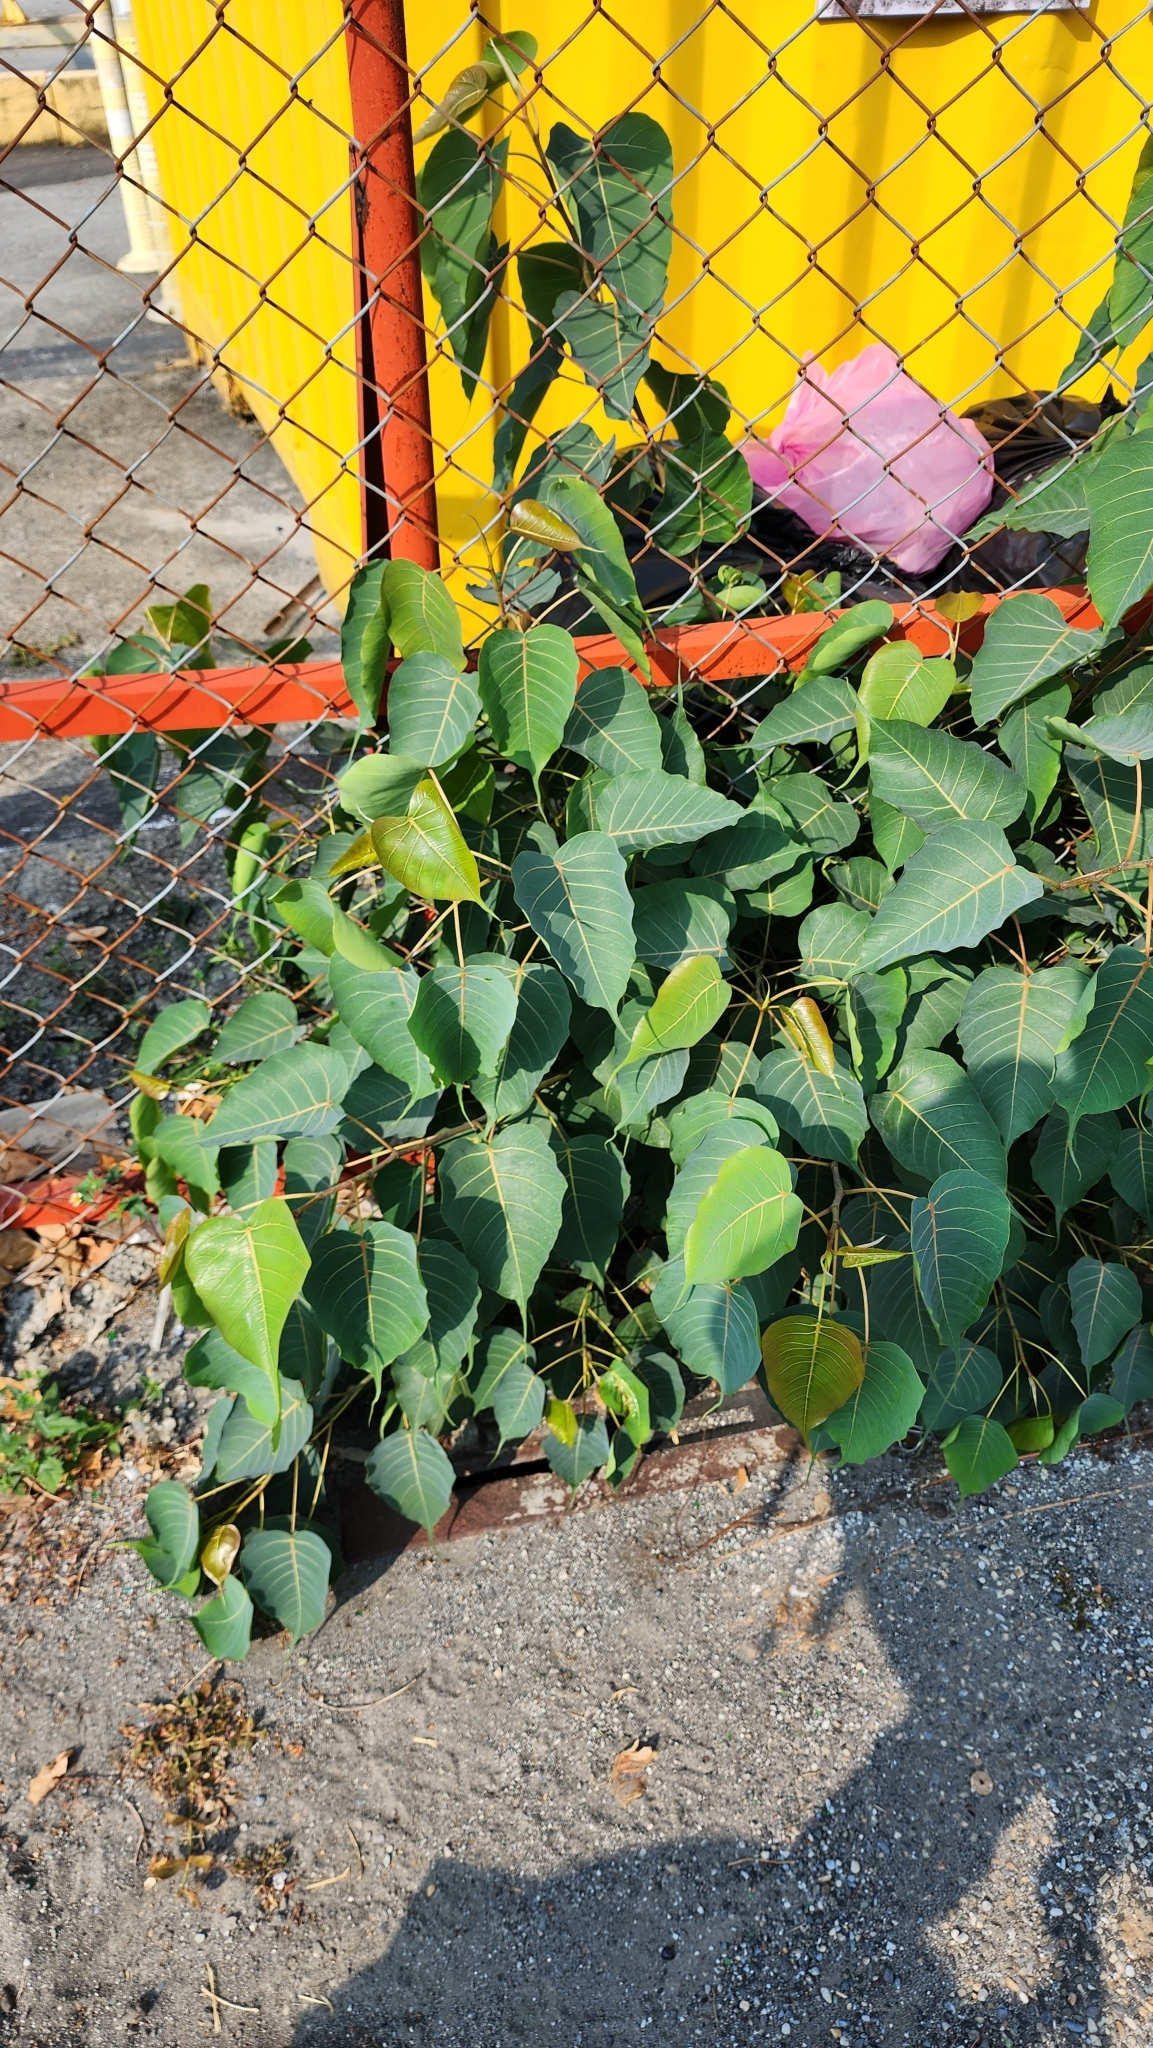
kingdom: Plantae
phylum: Tracheophyta
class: Magnoliopsida
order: Rosales
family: Moraceae
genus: Ficus
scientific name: Ficus religiosa
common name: Bodhi tree
